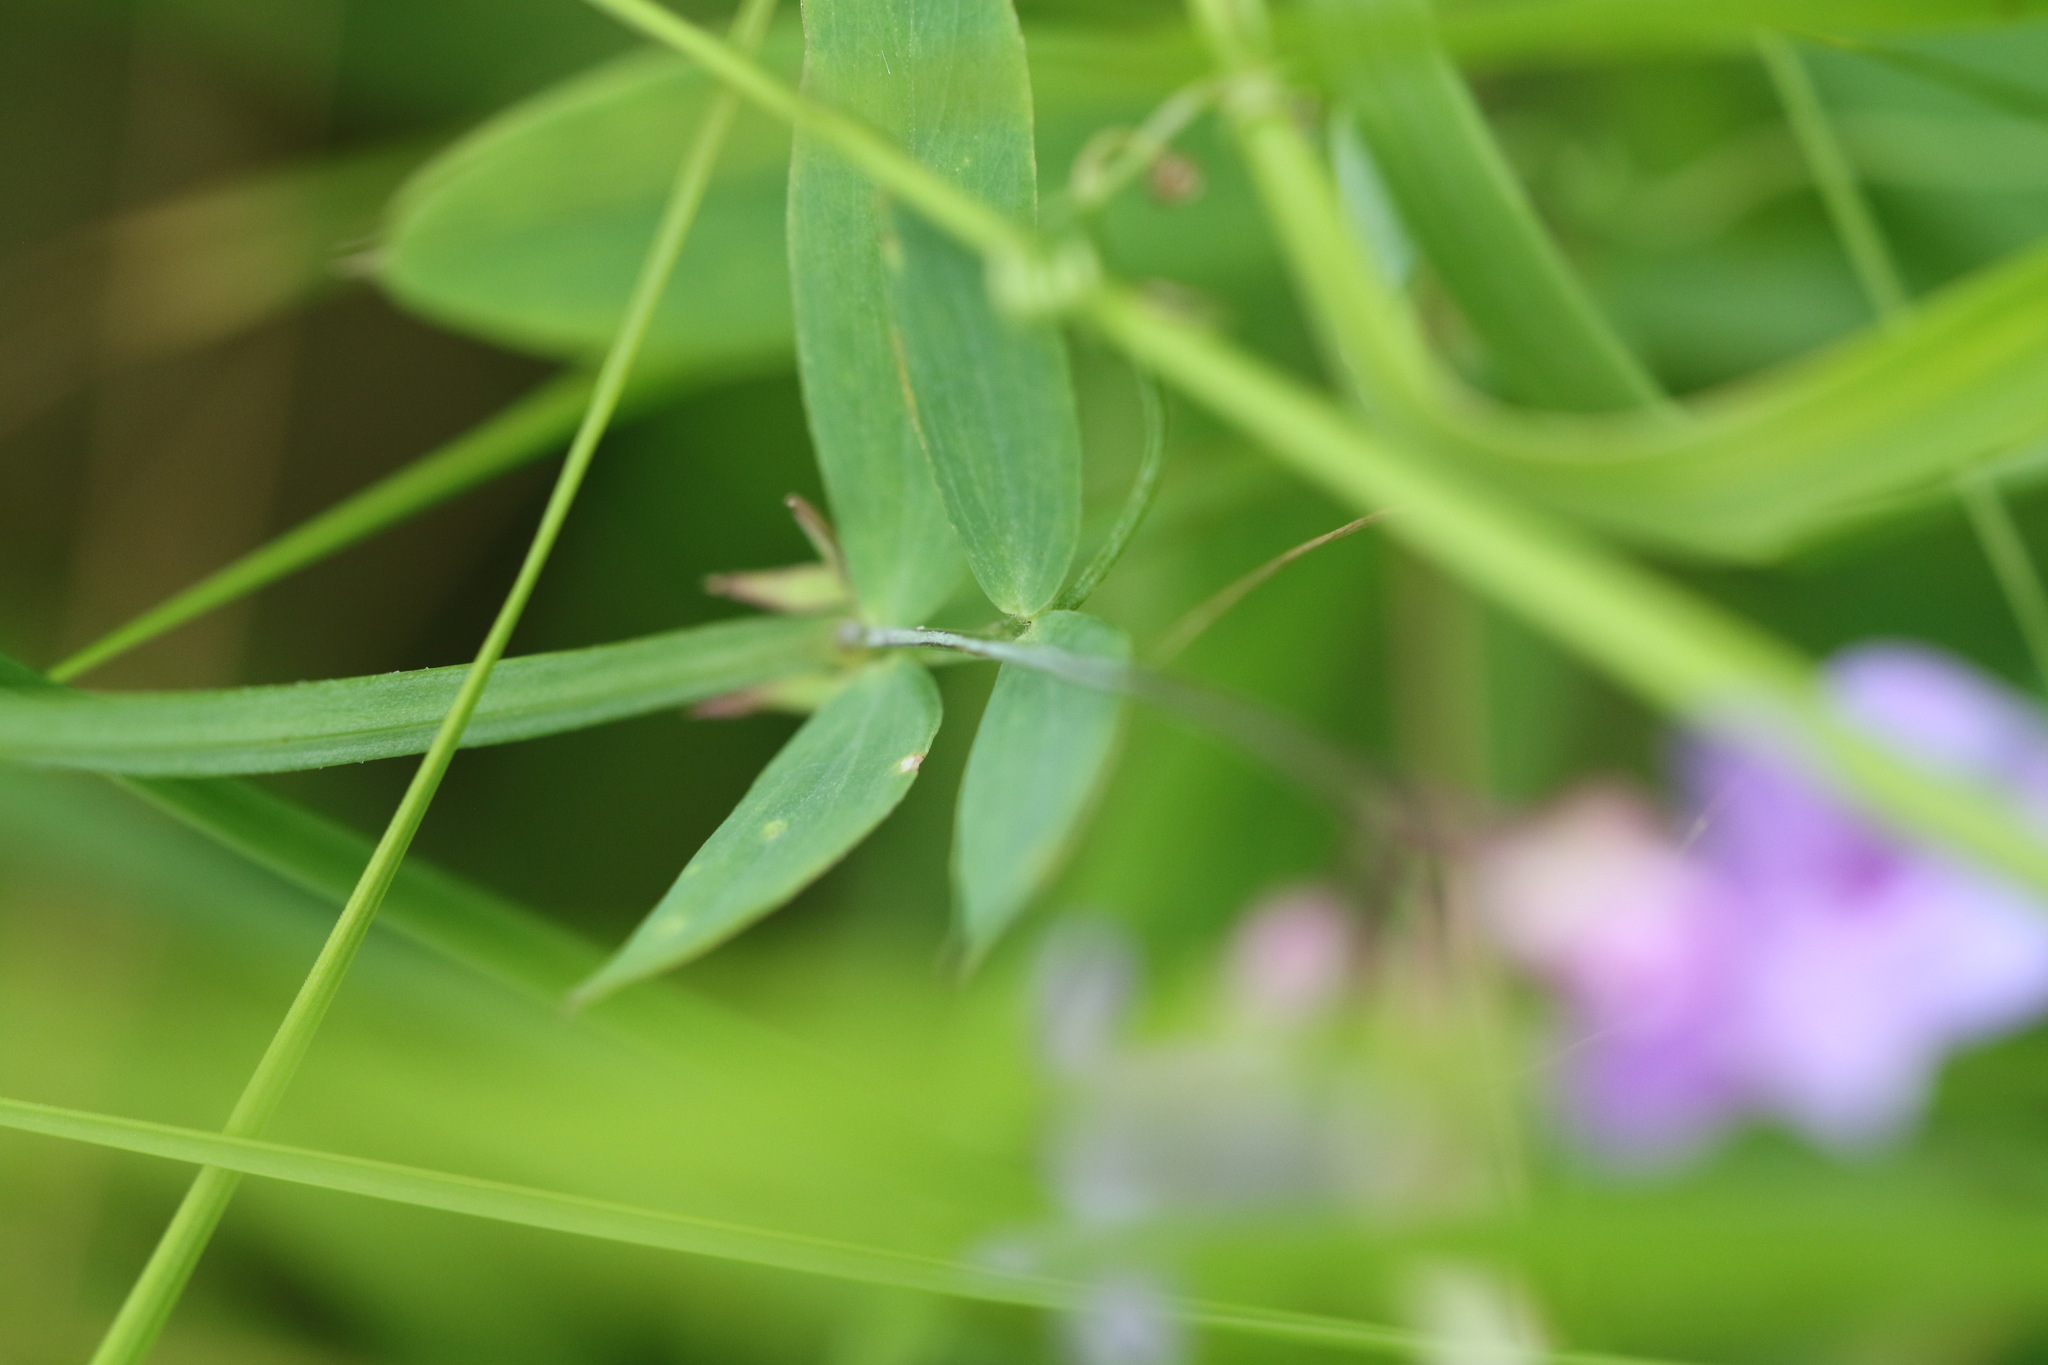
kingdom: Plantae
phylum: Tracheophyta
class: Magnoliopsida
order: Fabales
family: Fabaceae
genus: Lathyrus
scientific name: Lathyrus palustris
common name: Marsh pea
